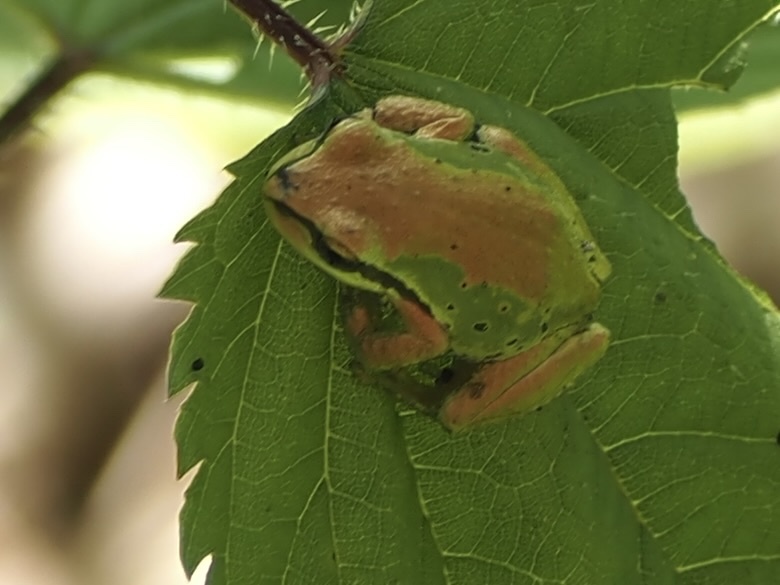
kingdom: Animalia
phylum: Chordata
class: Amphibia
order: Anura
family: Hylidae
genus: Pseudacris
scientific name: Pseudacris regilla
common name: Pacific chorus frog
